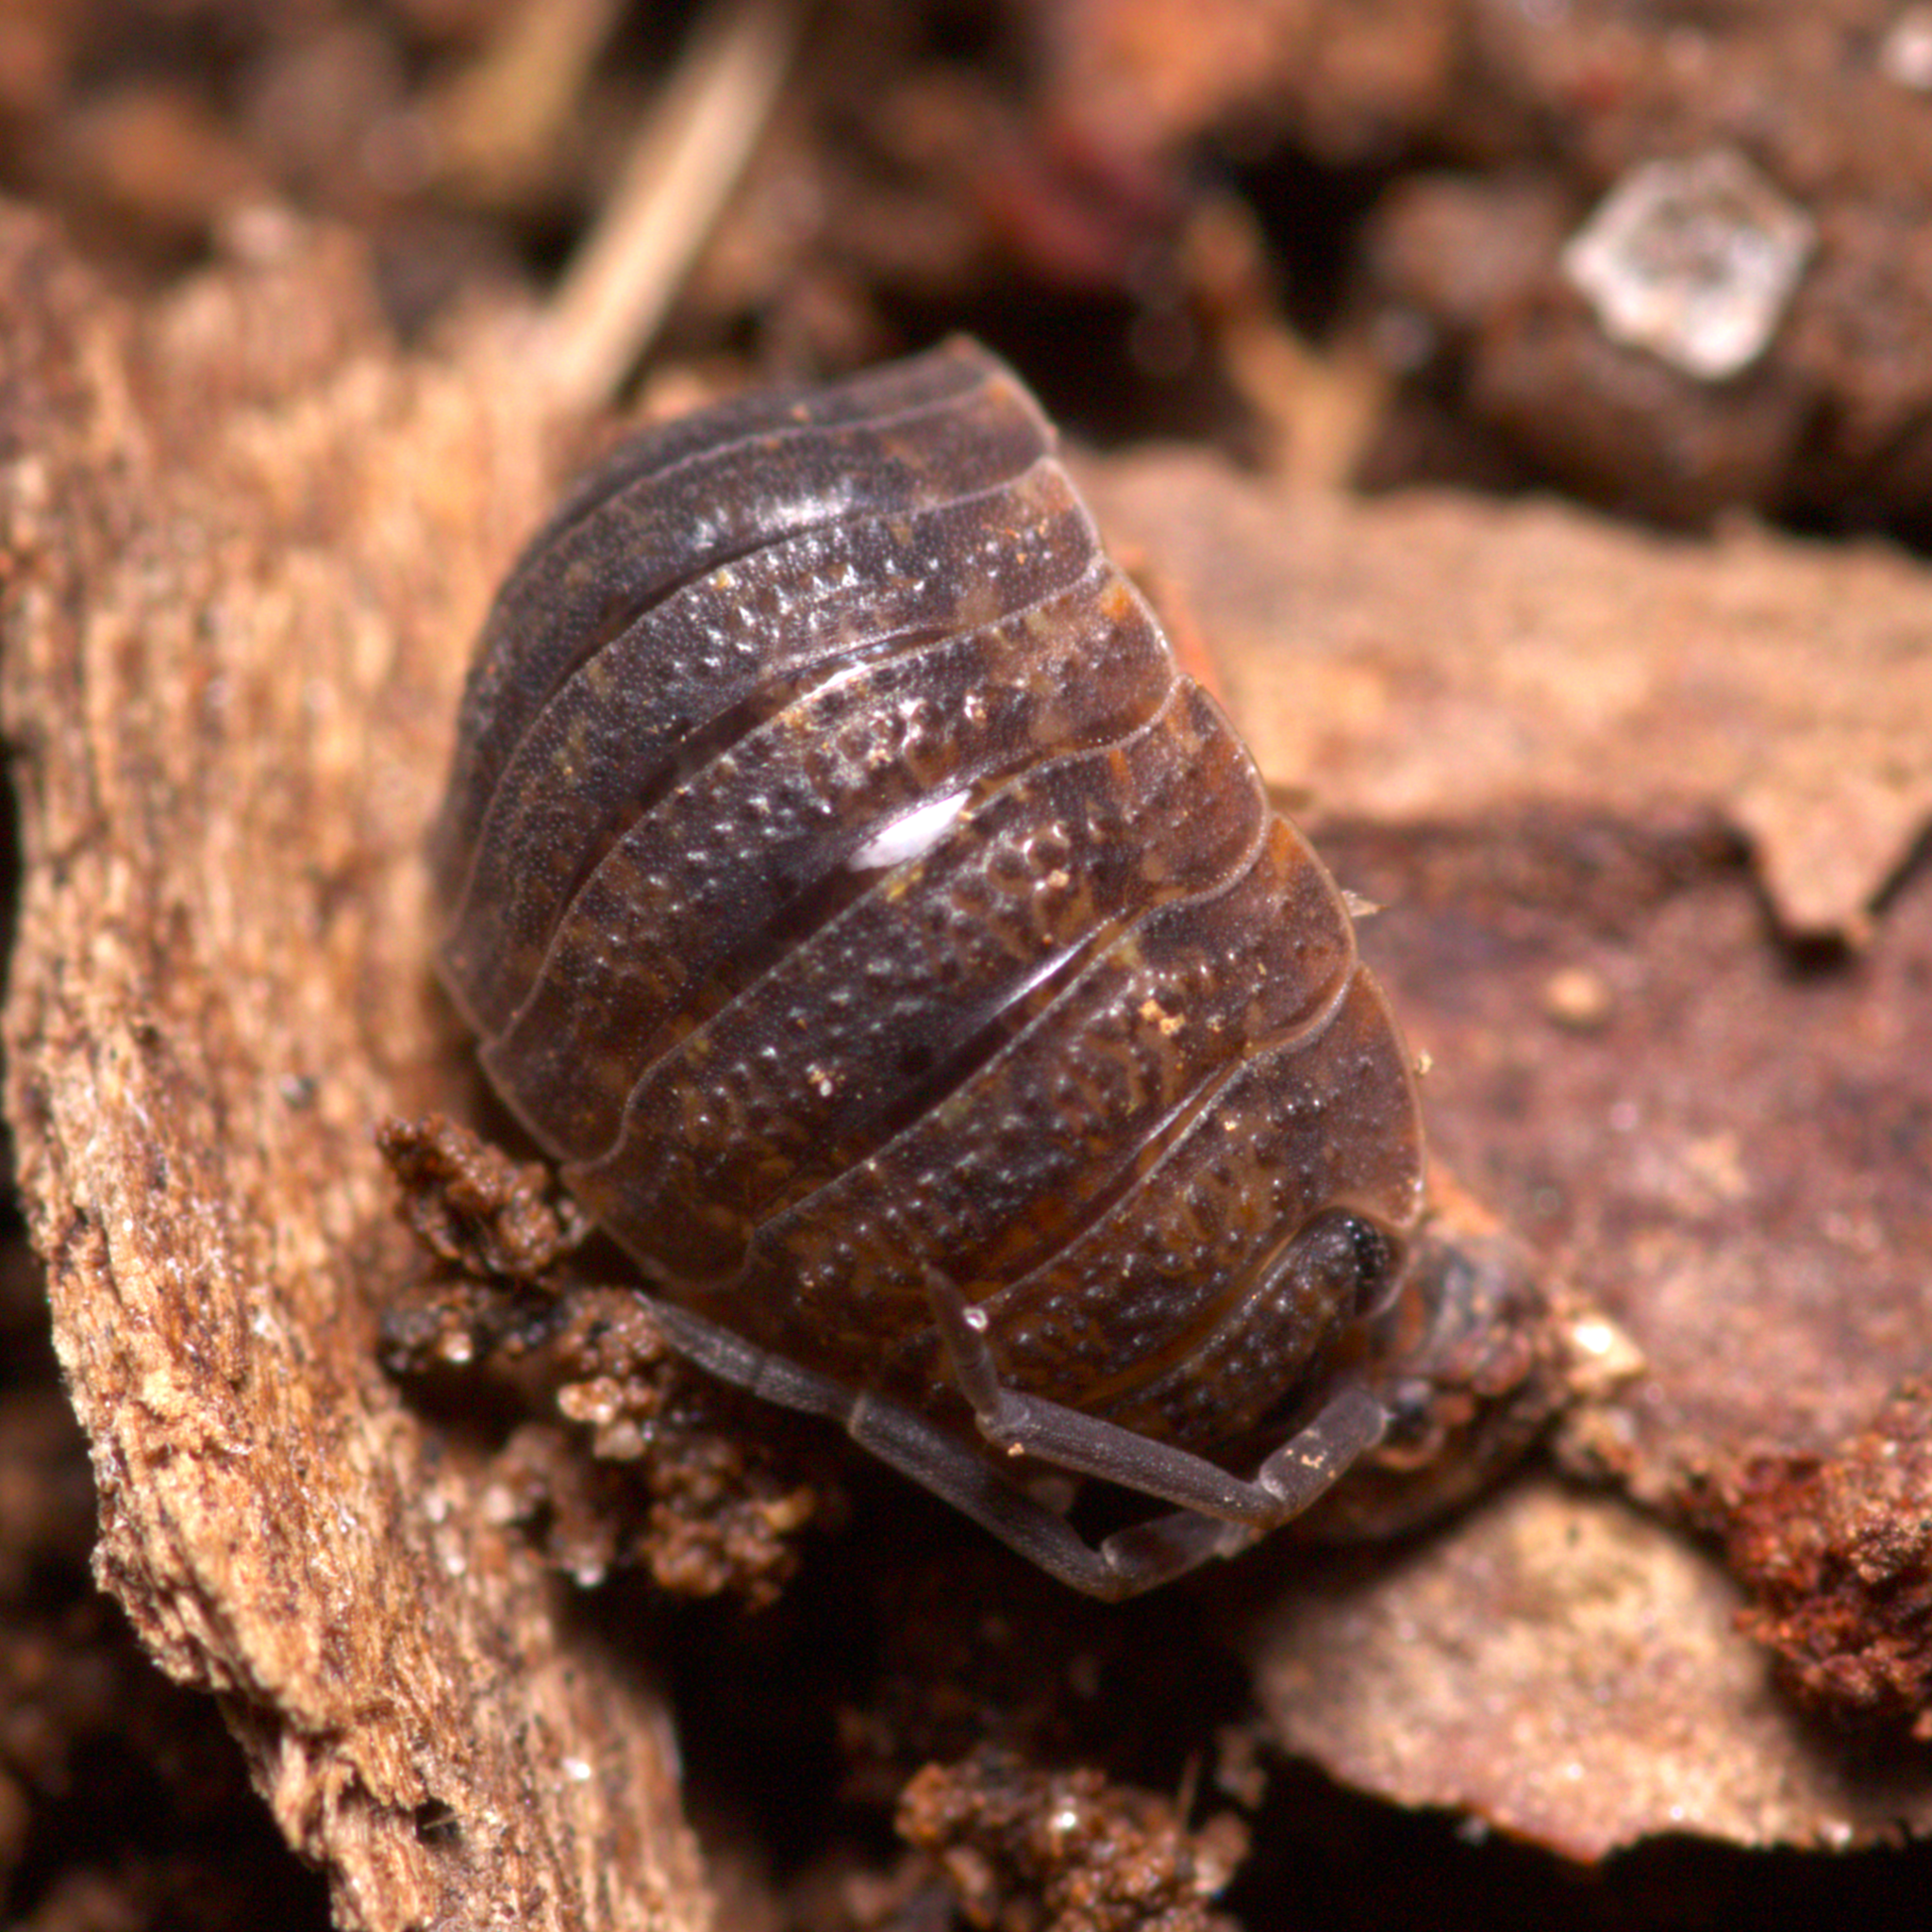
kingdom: Animalia
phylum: Arthropoda
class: Malacostraca
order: Isopoda
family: Porcellionidae
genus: Porcellio
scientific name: Porcellio scaber
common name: Common rough woodlouse
